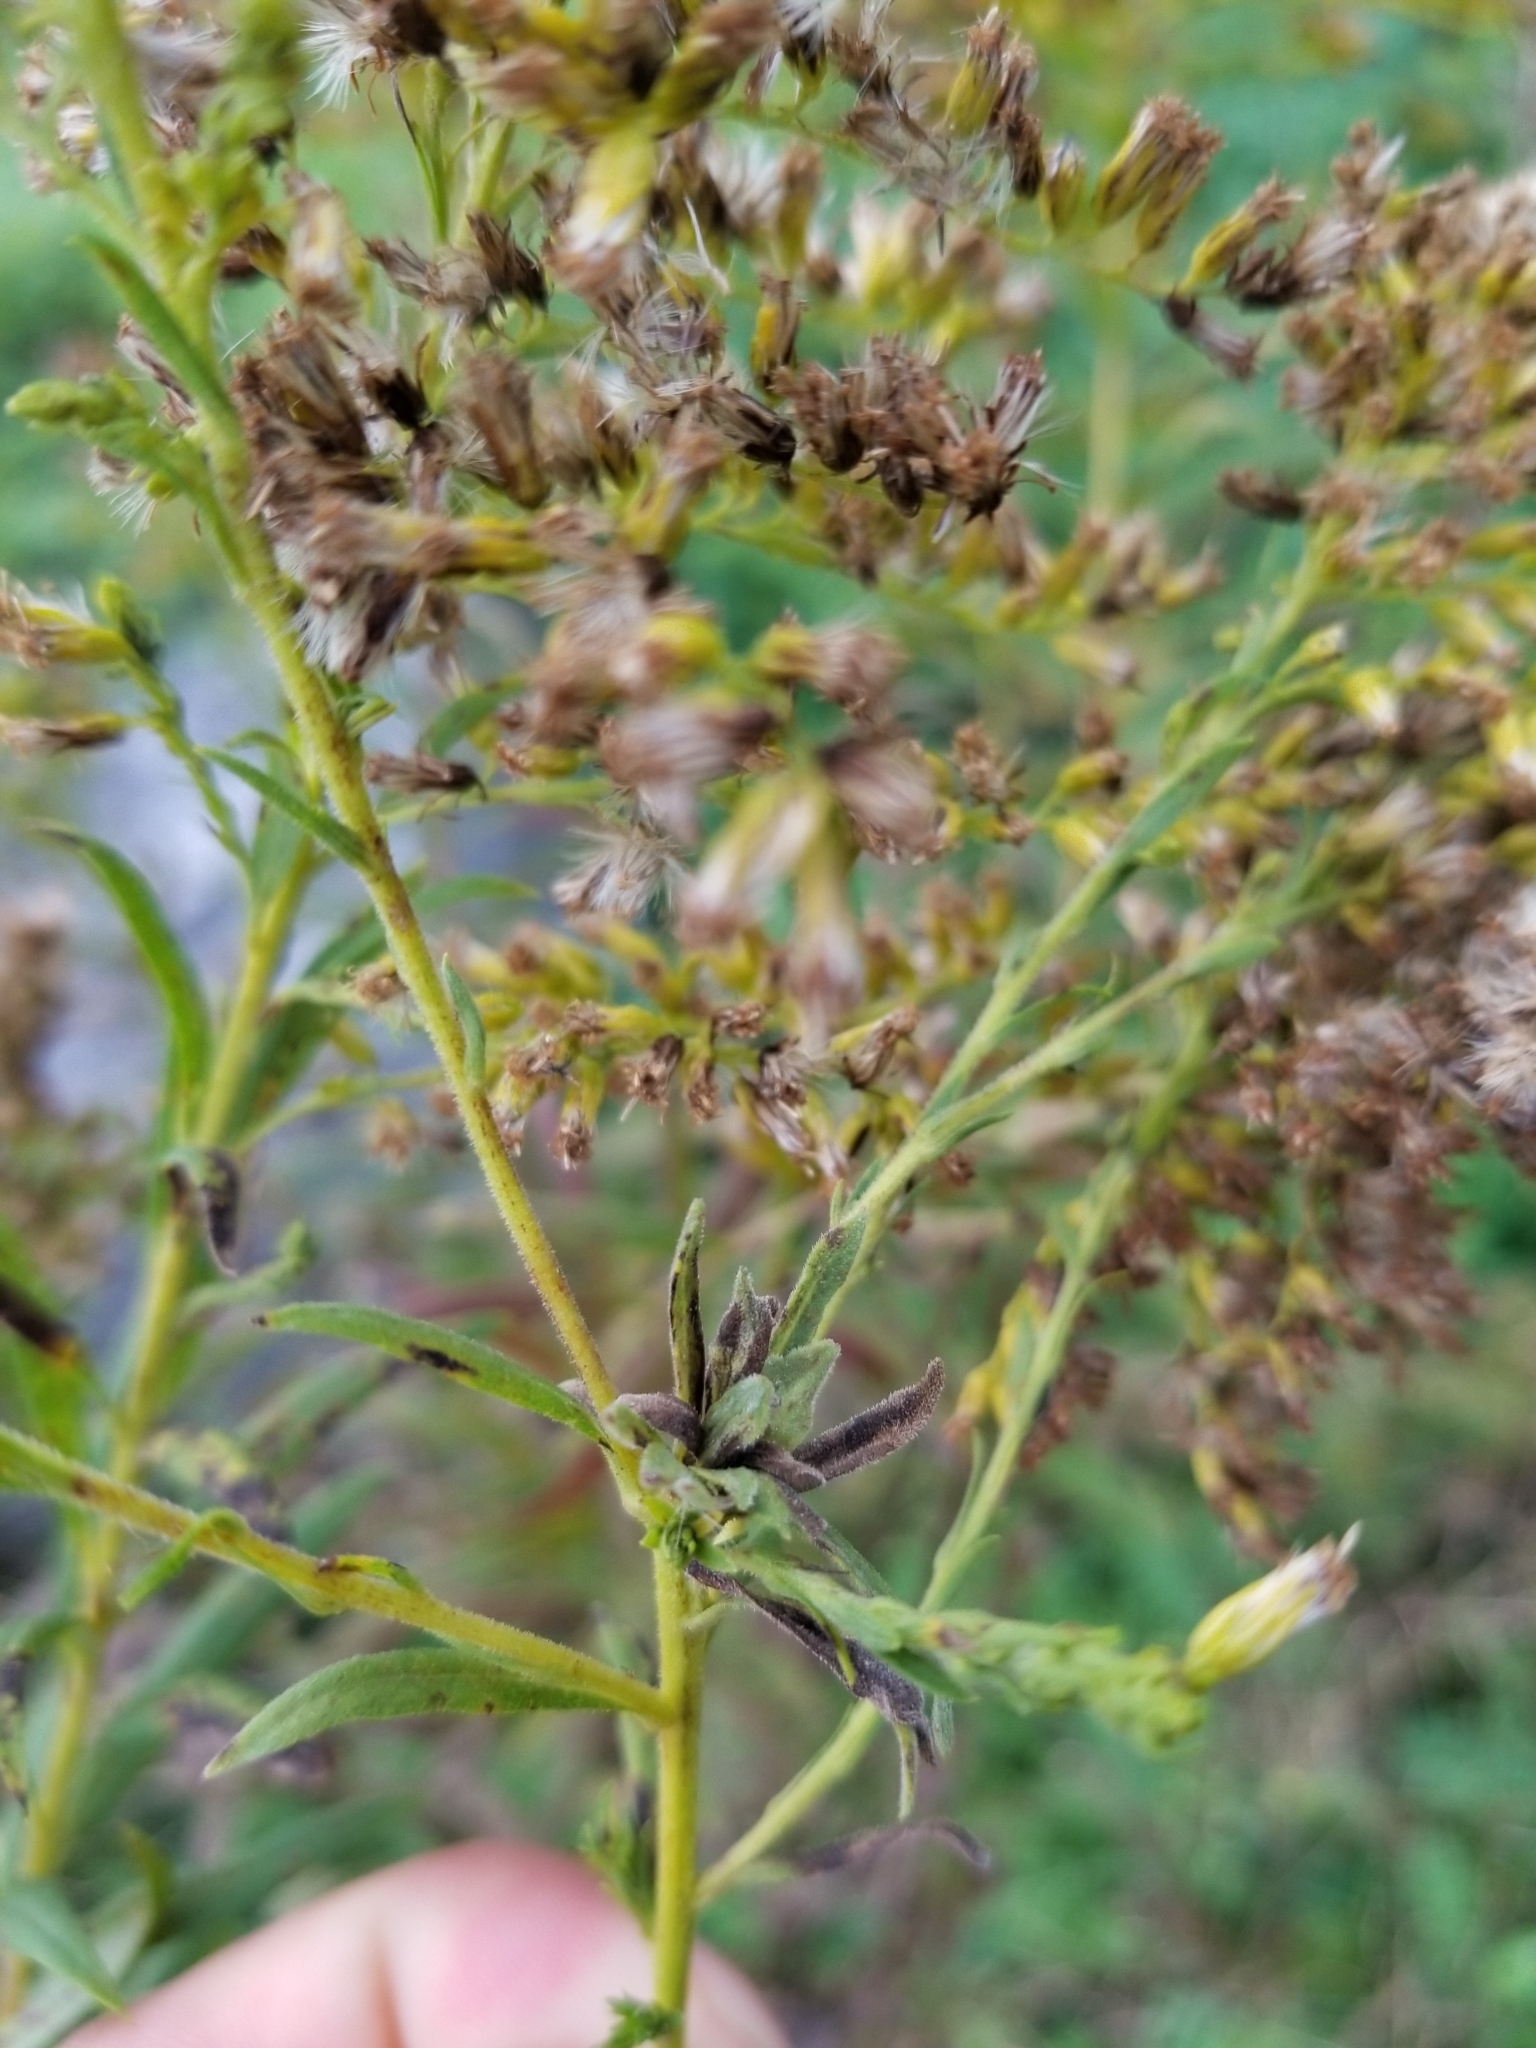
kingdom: Animalia
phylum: Arthropoda
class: Insecta
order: Diptera
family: Cecidomyiidae
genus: Asphondylia
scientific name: Asphondylia solidaginis
